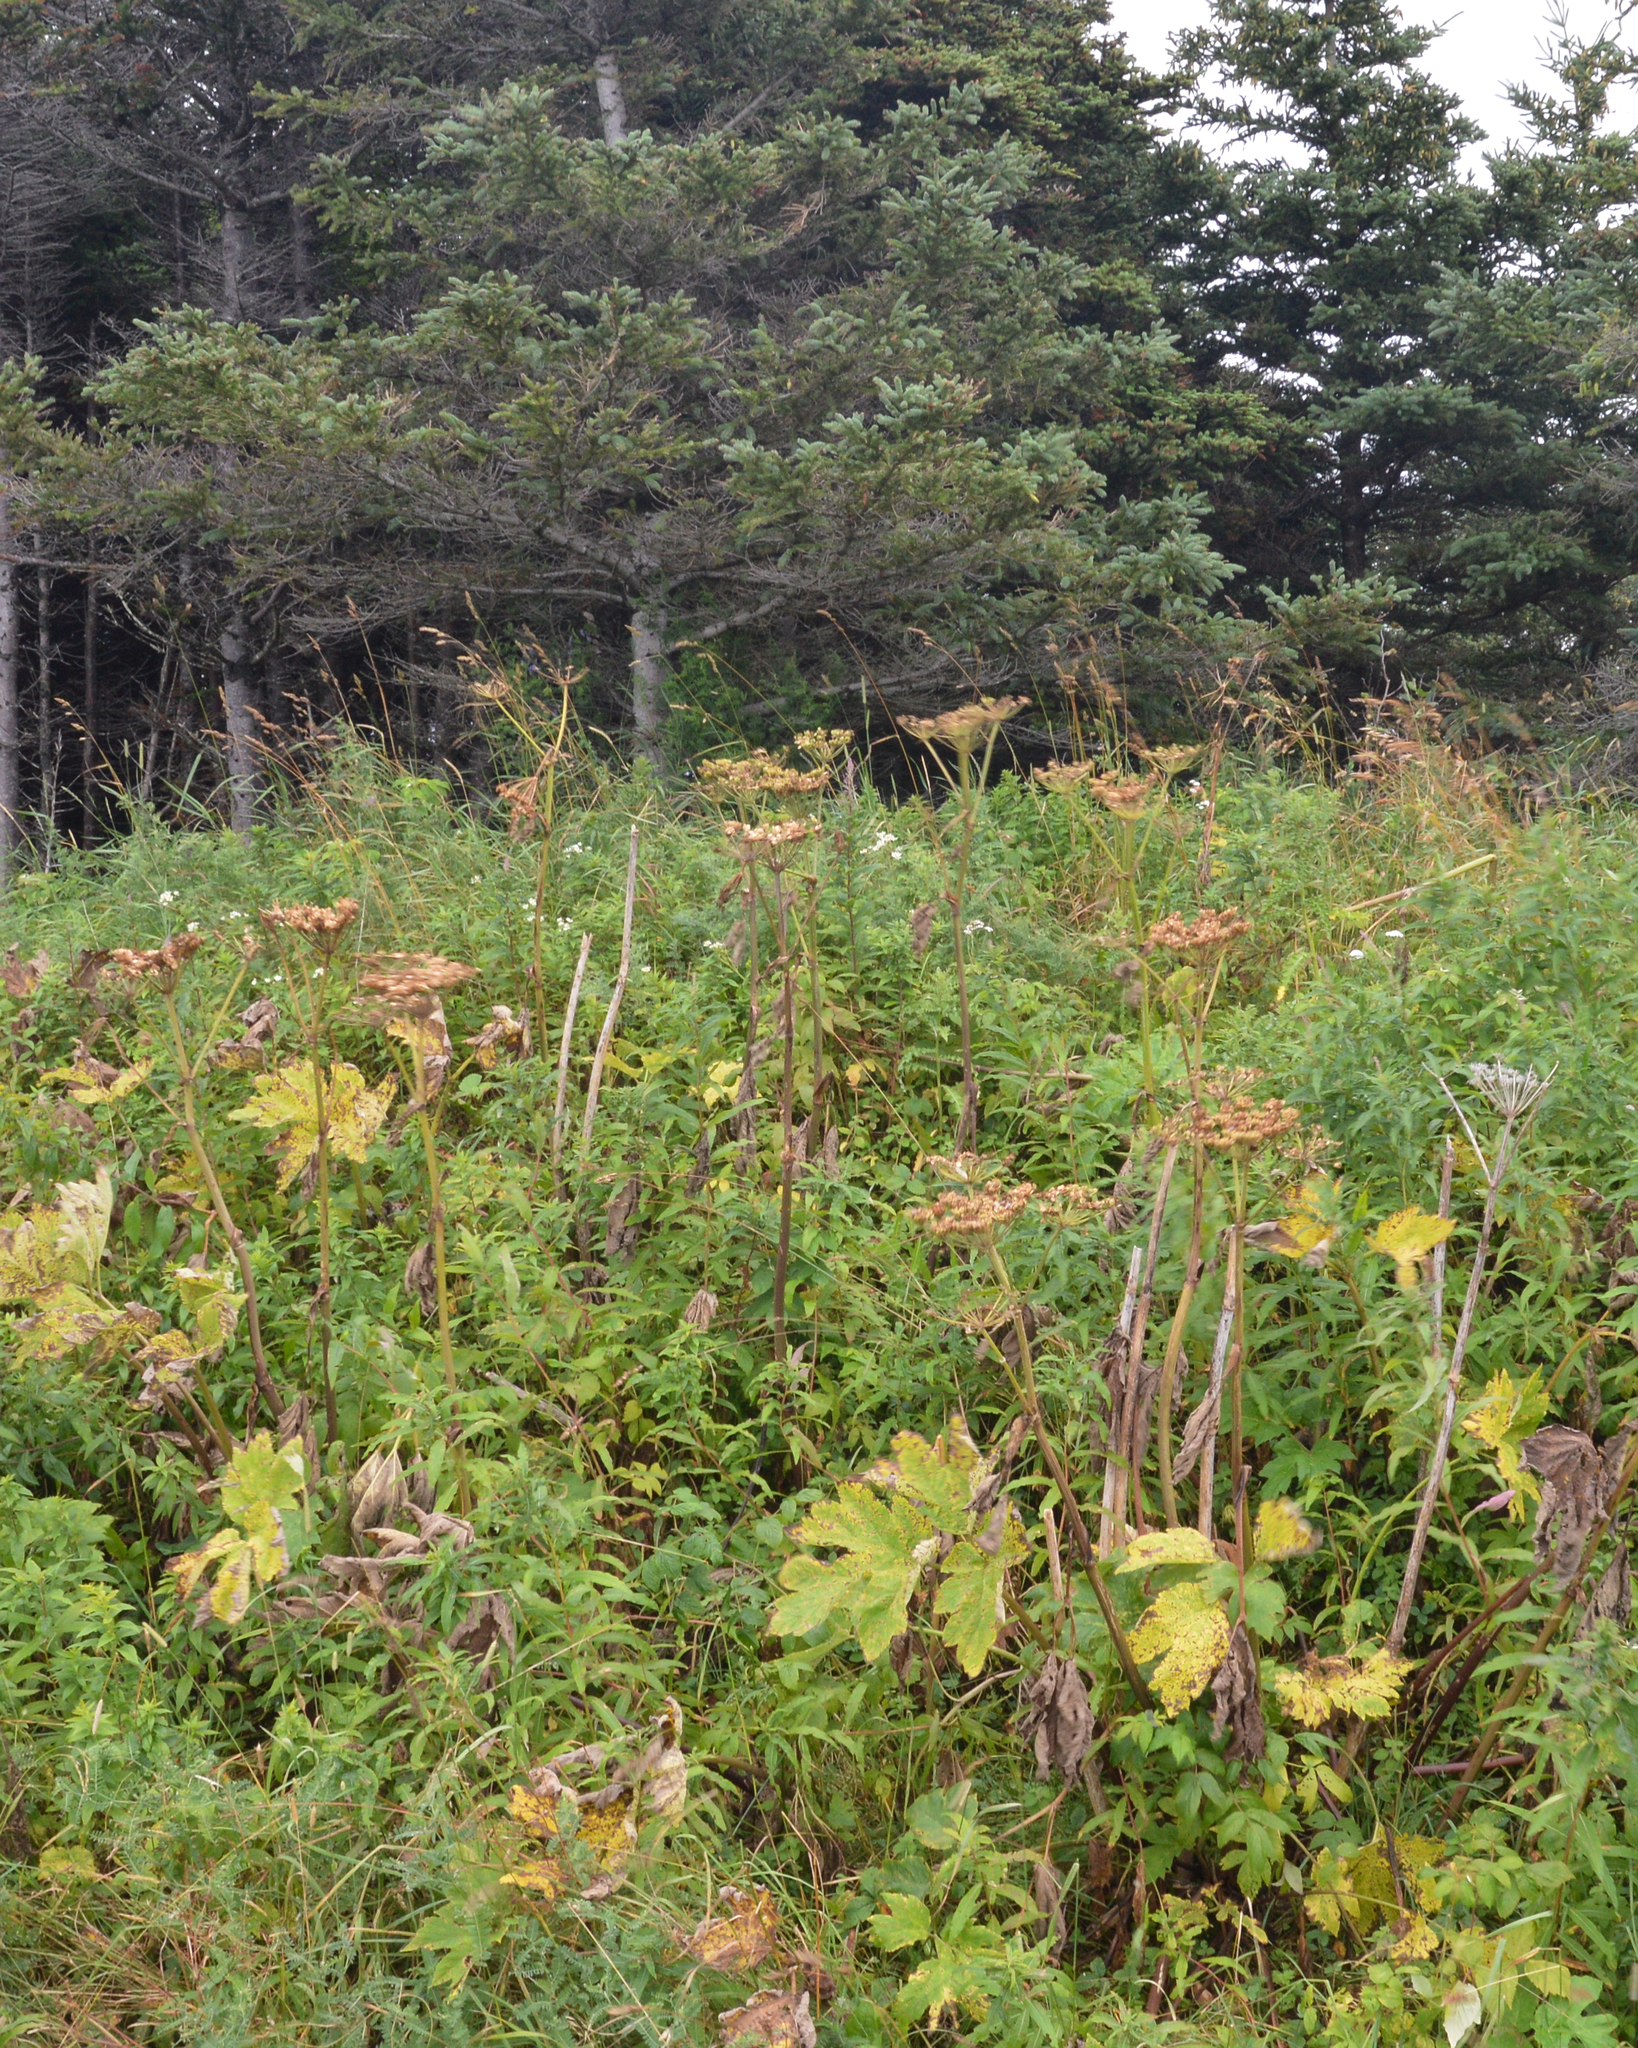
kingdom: Plantae
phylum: Tracheophyta
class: Magnoliopsida
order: Apiales
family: Apiaceae
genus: Heracleum
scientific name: Heracleum maximum
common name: American cow parsnip
